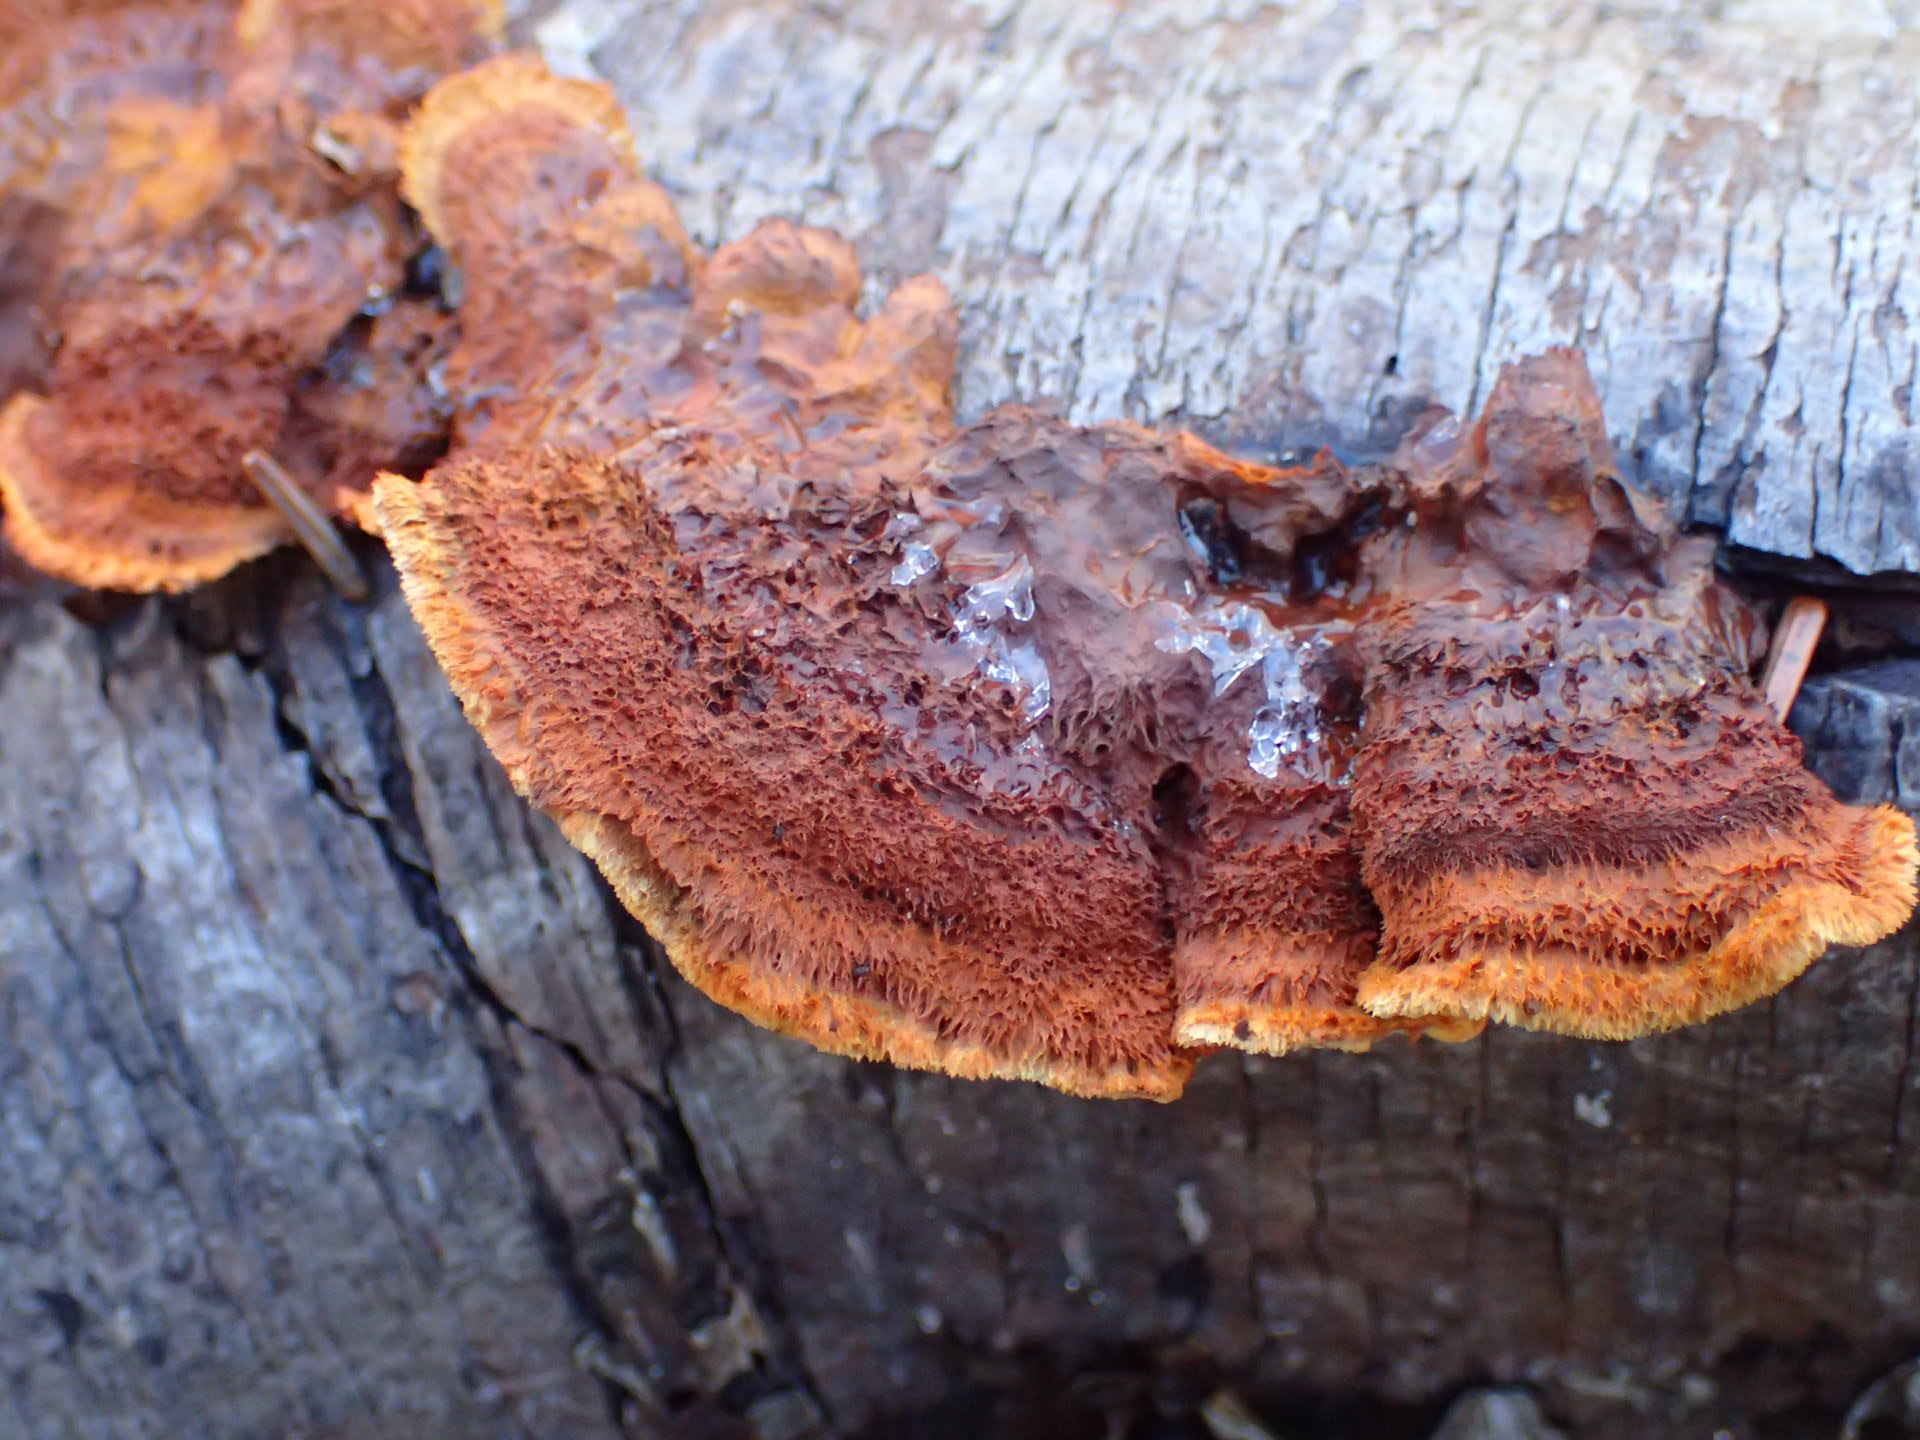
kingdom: Fungi
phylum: Basidiomycota
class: Agaricomycetes
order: Gloeophyllales
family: Gloeophyllaceae
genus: Gloeophyllum
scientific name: Gloeophyllum sepiarium
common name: Conifer mazegill
